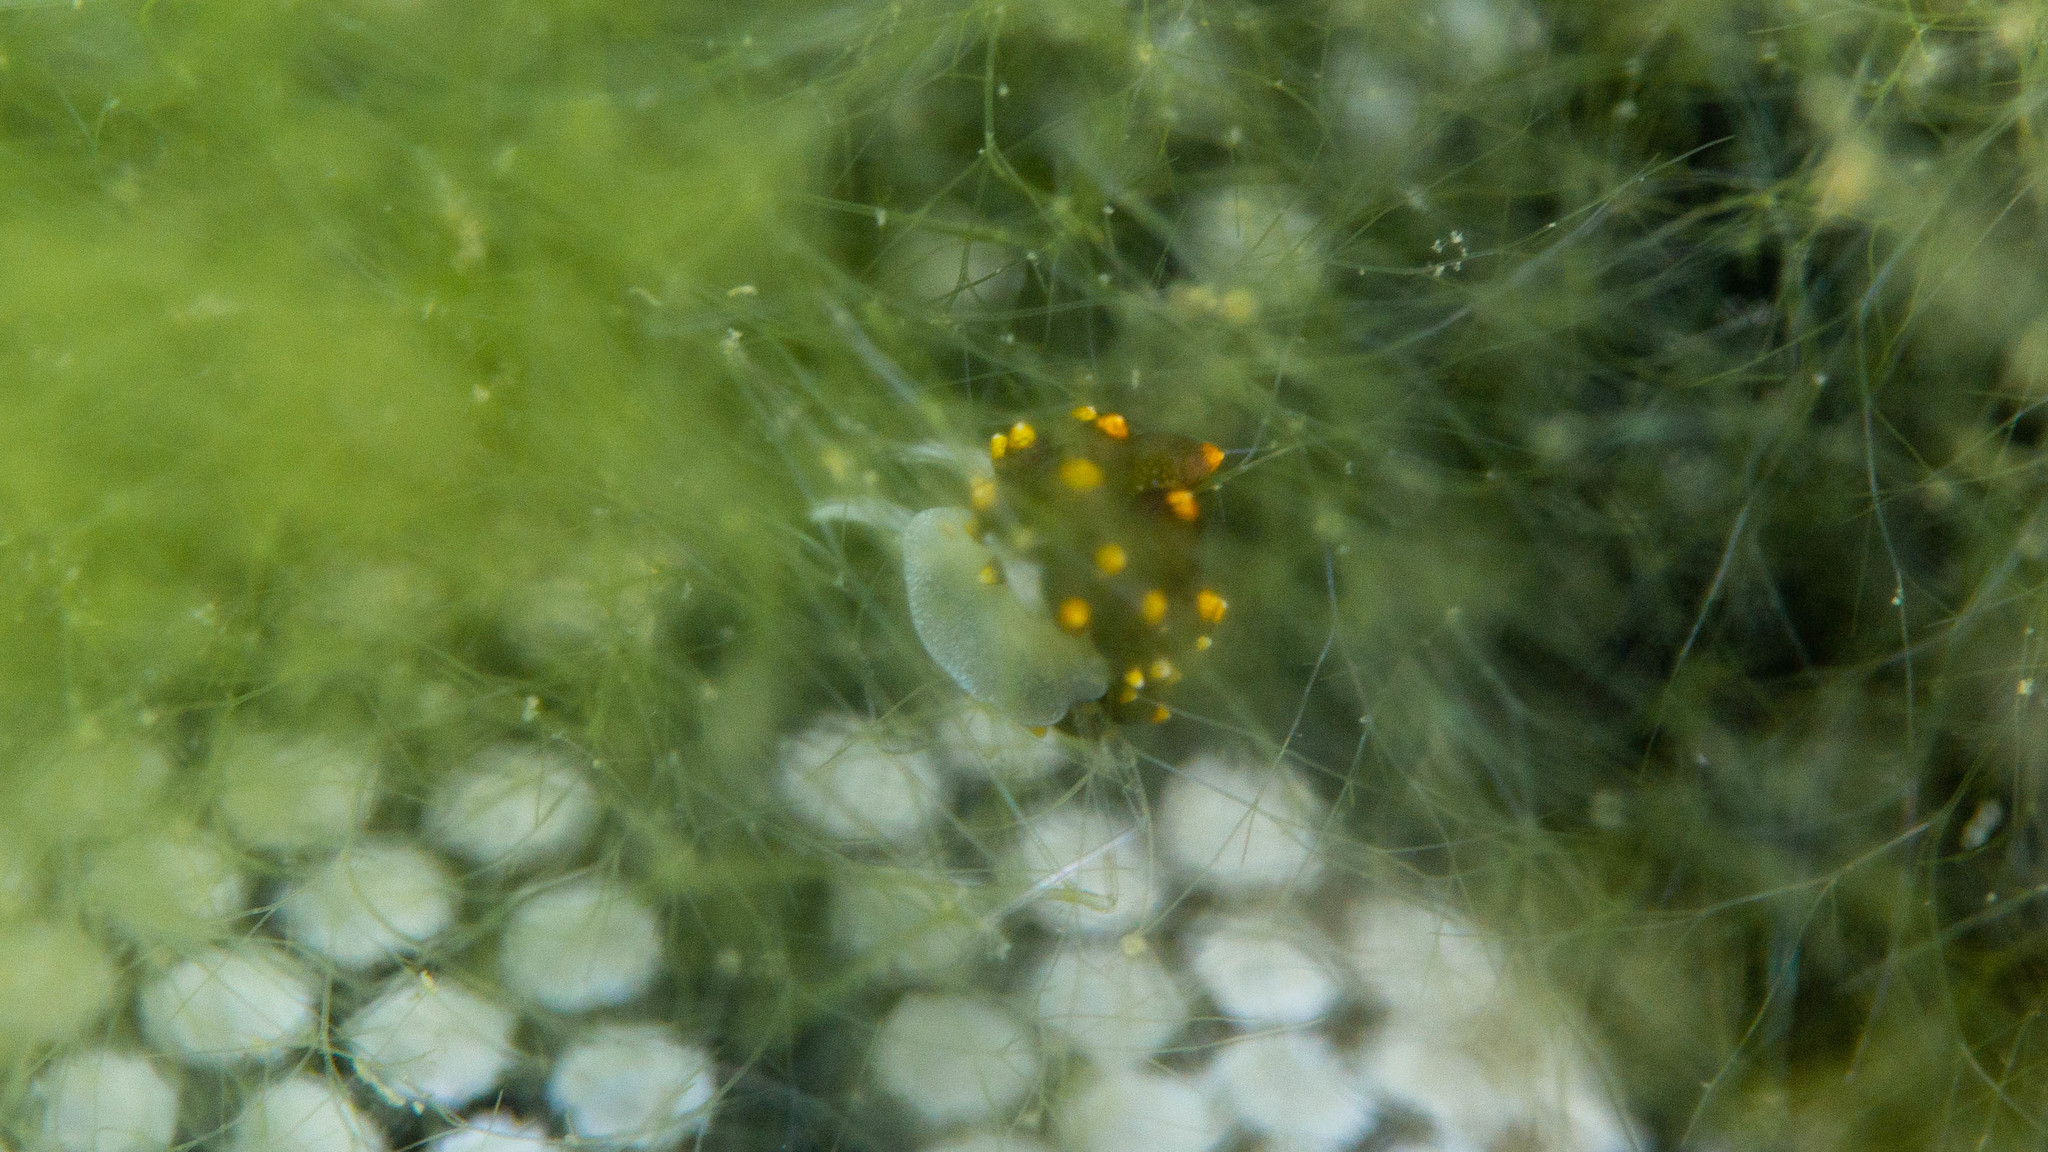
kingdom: Animalia
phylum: Mollusca
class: Gastropoda
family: Limapontiidae
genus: Ercolania
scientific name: Ercolania boodleae
